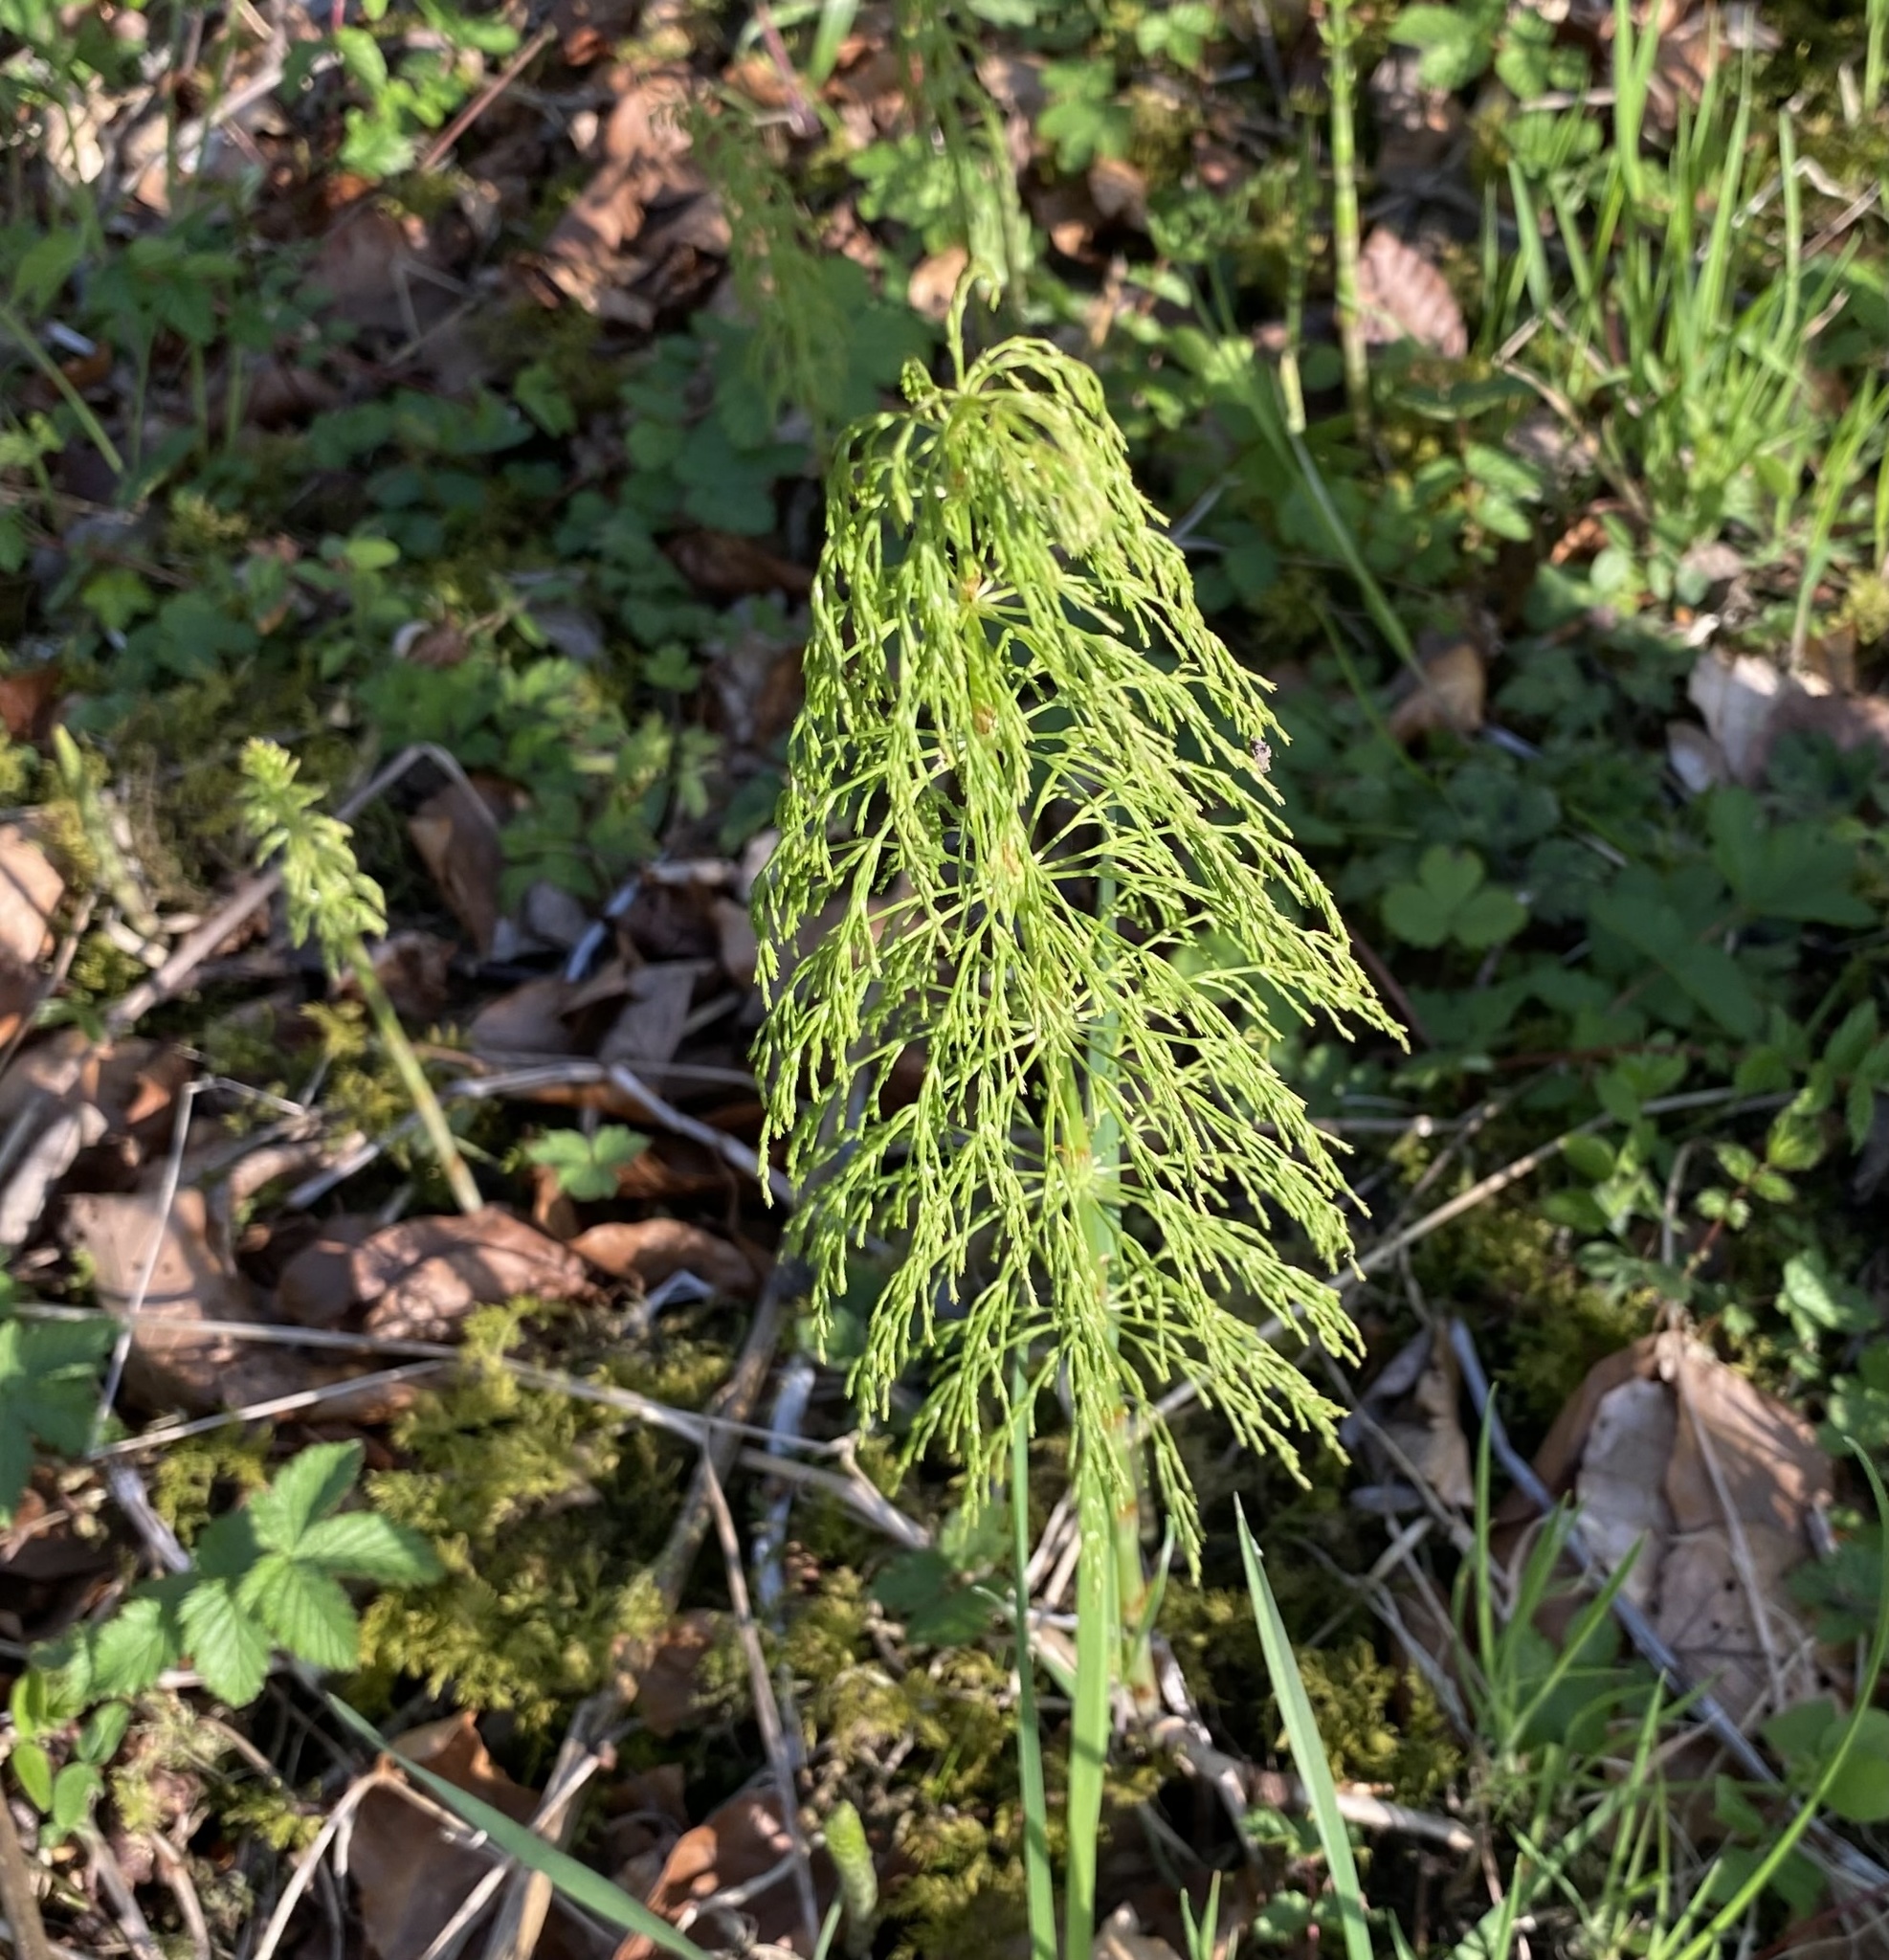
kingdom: Plantae
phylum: Tracheophyta
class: Polypodiopsida
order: Equisetales
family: Equisetaceae
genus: Equisetum
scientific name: Equisetum sylvaticum
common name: Wood horsetail
